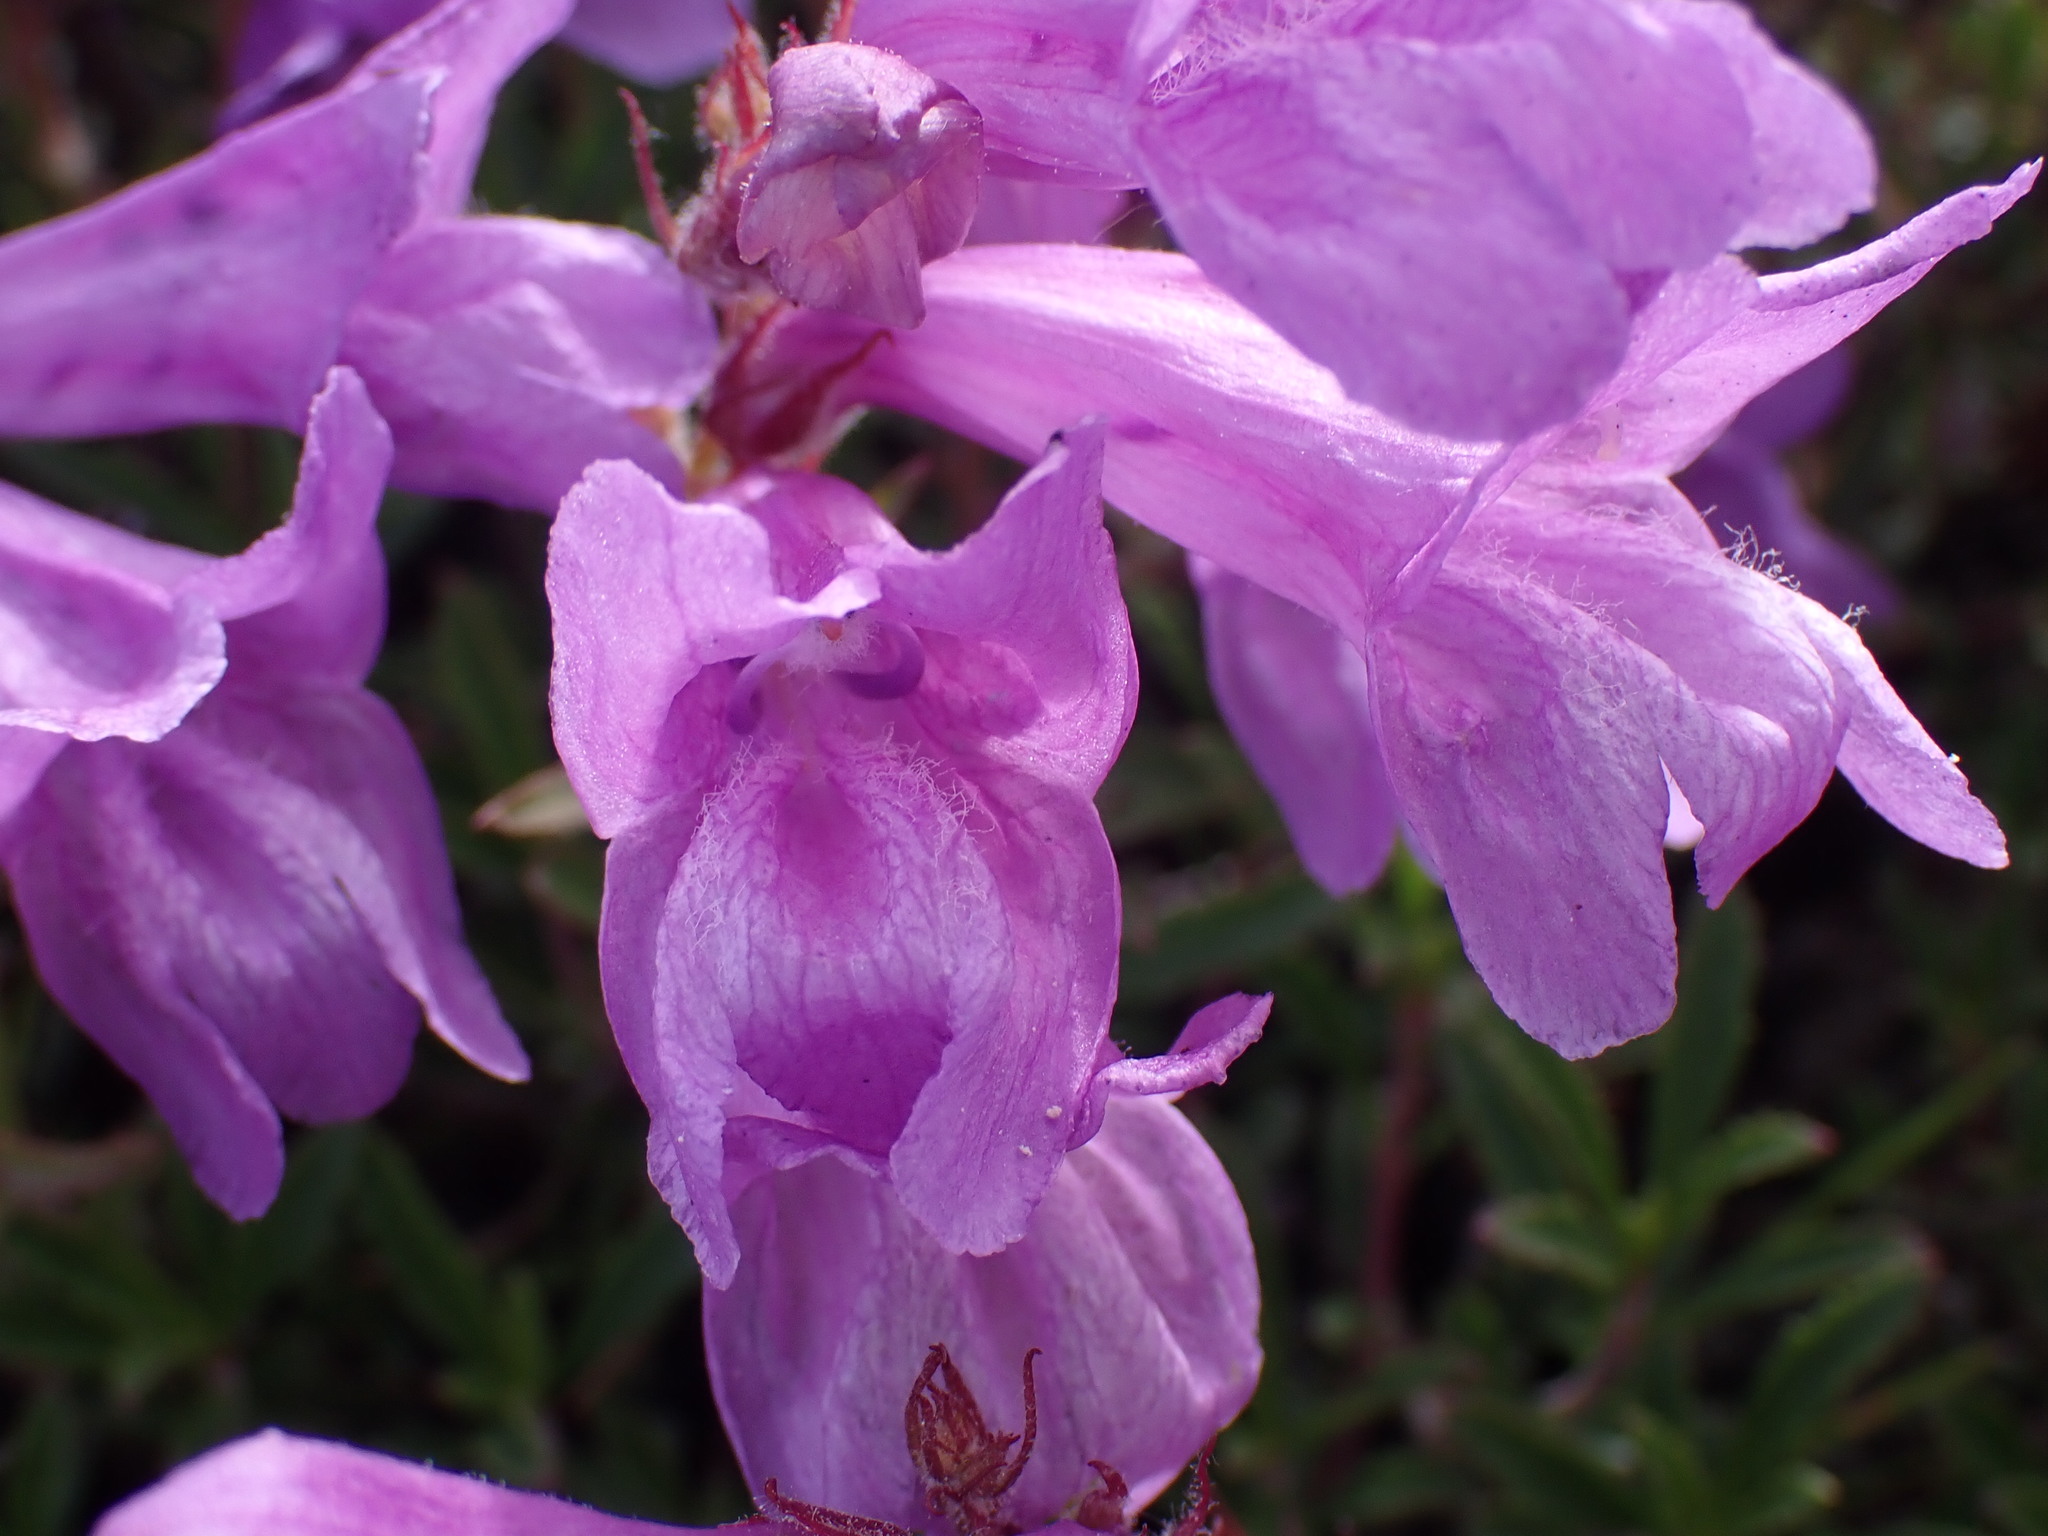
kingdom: Plantae
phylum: Tracheophyta
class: Magnoliopsida
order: Lamiales
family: Plantaginaceae
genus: Penstemon
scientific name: Penstemon fruticosus
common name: Bush penstemon
